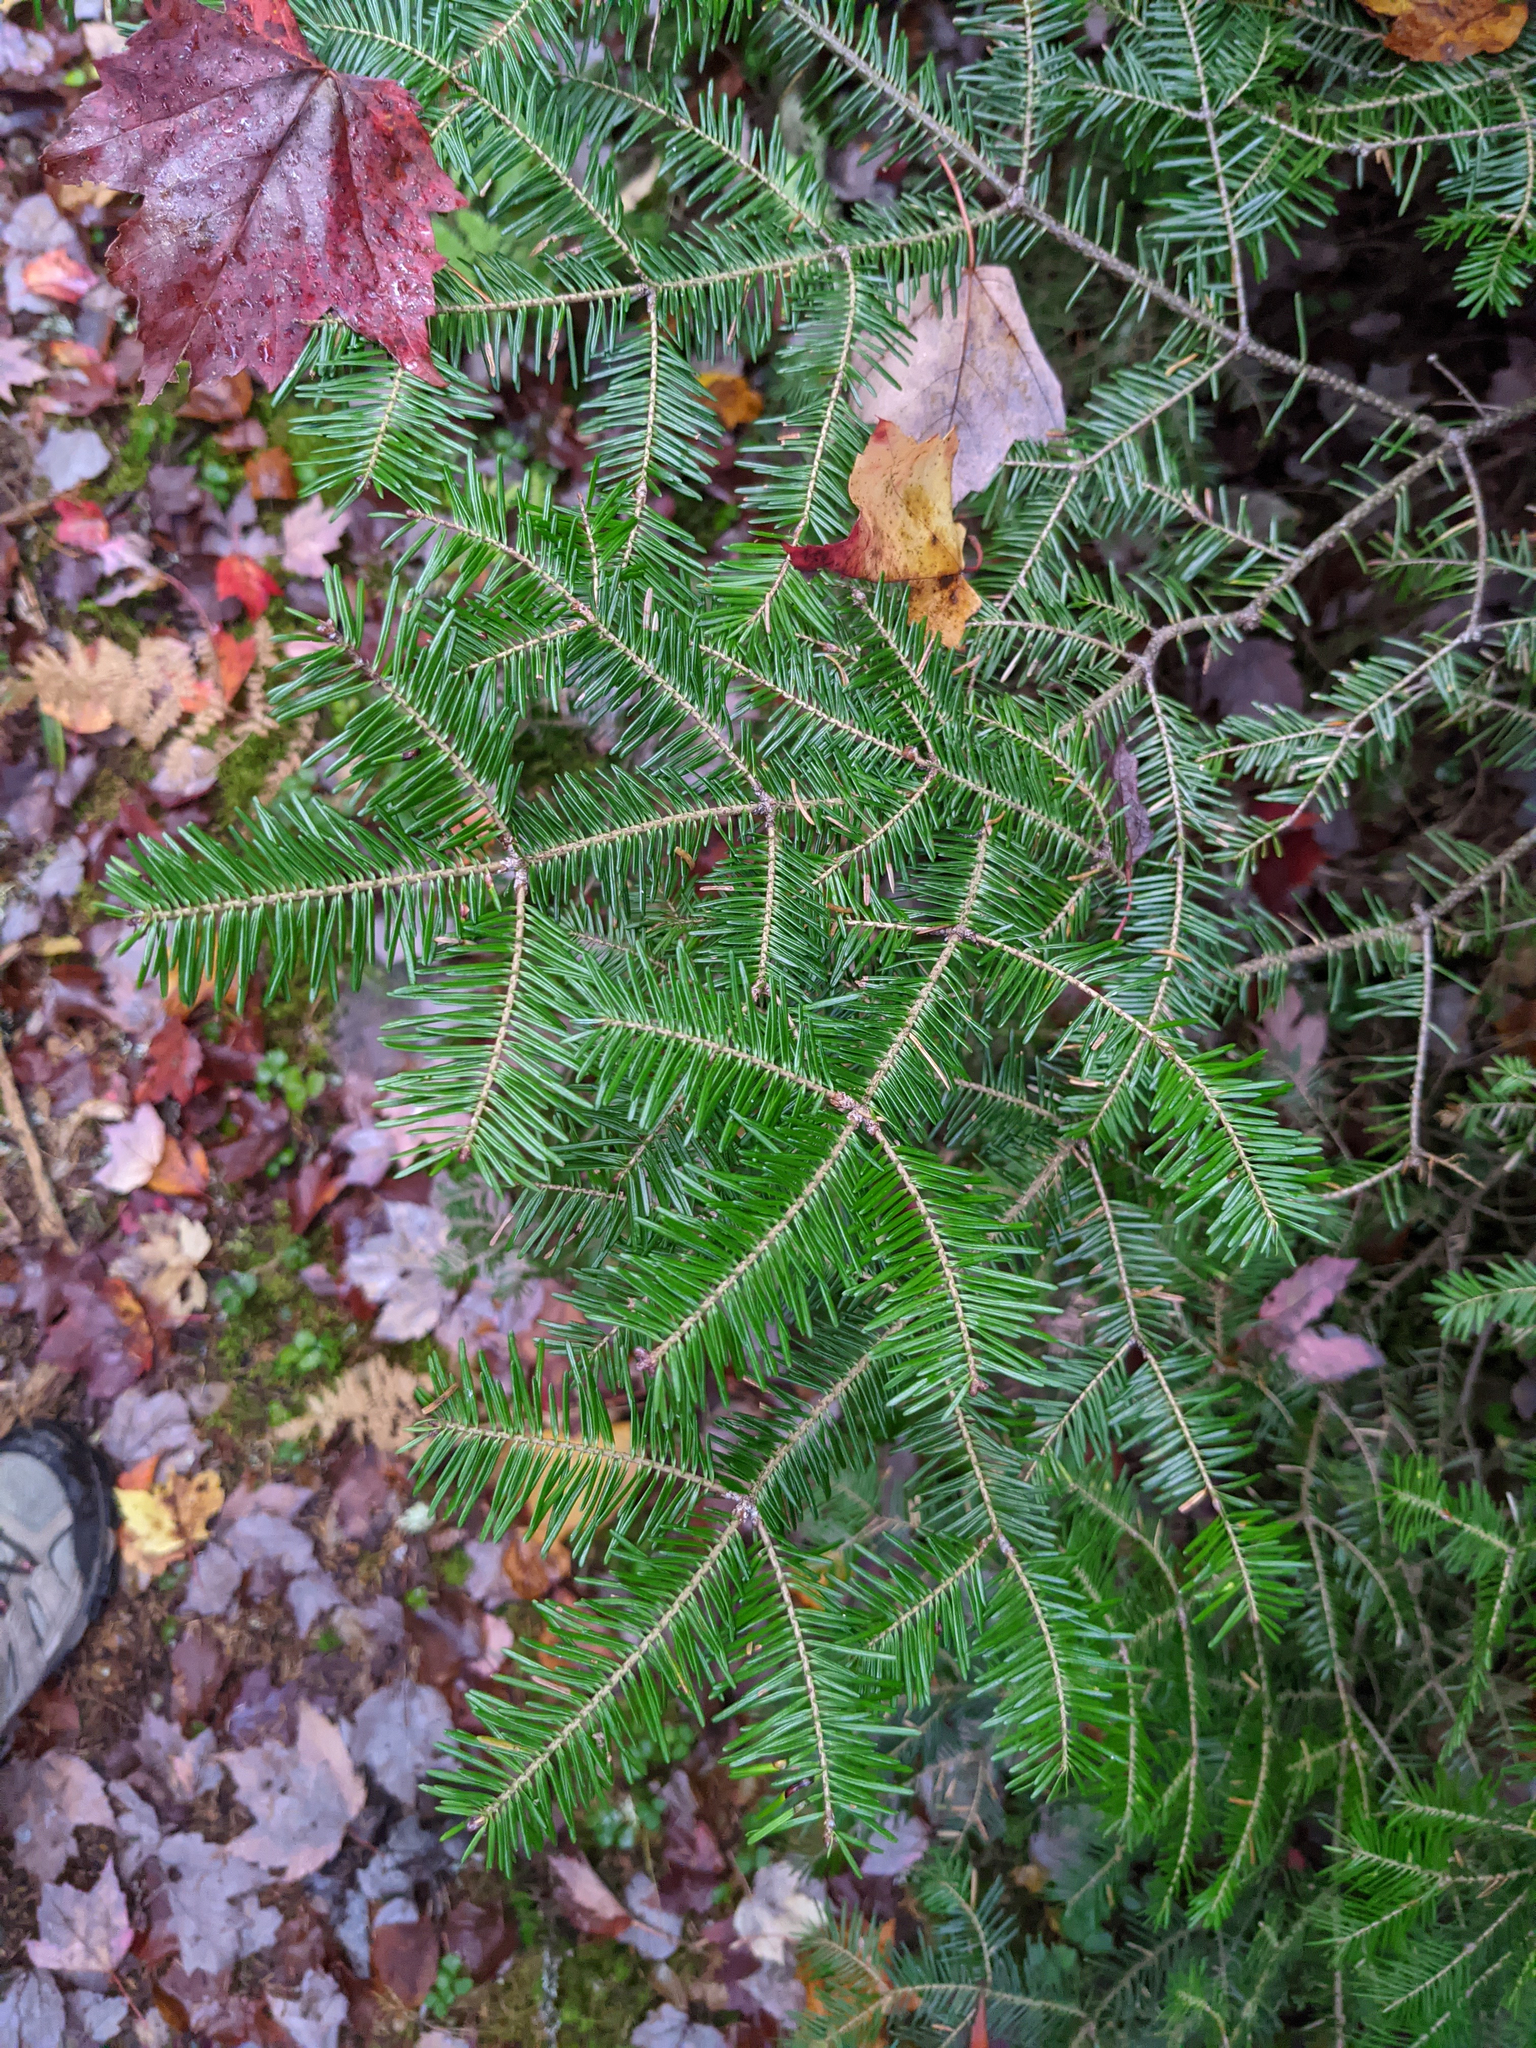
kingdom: Plantae
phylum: Tracheophyta
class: Pinopsida
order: Pinales
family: Pinaceae
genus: Abies
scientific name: Abies balsamea
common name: Balsam fir
